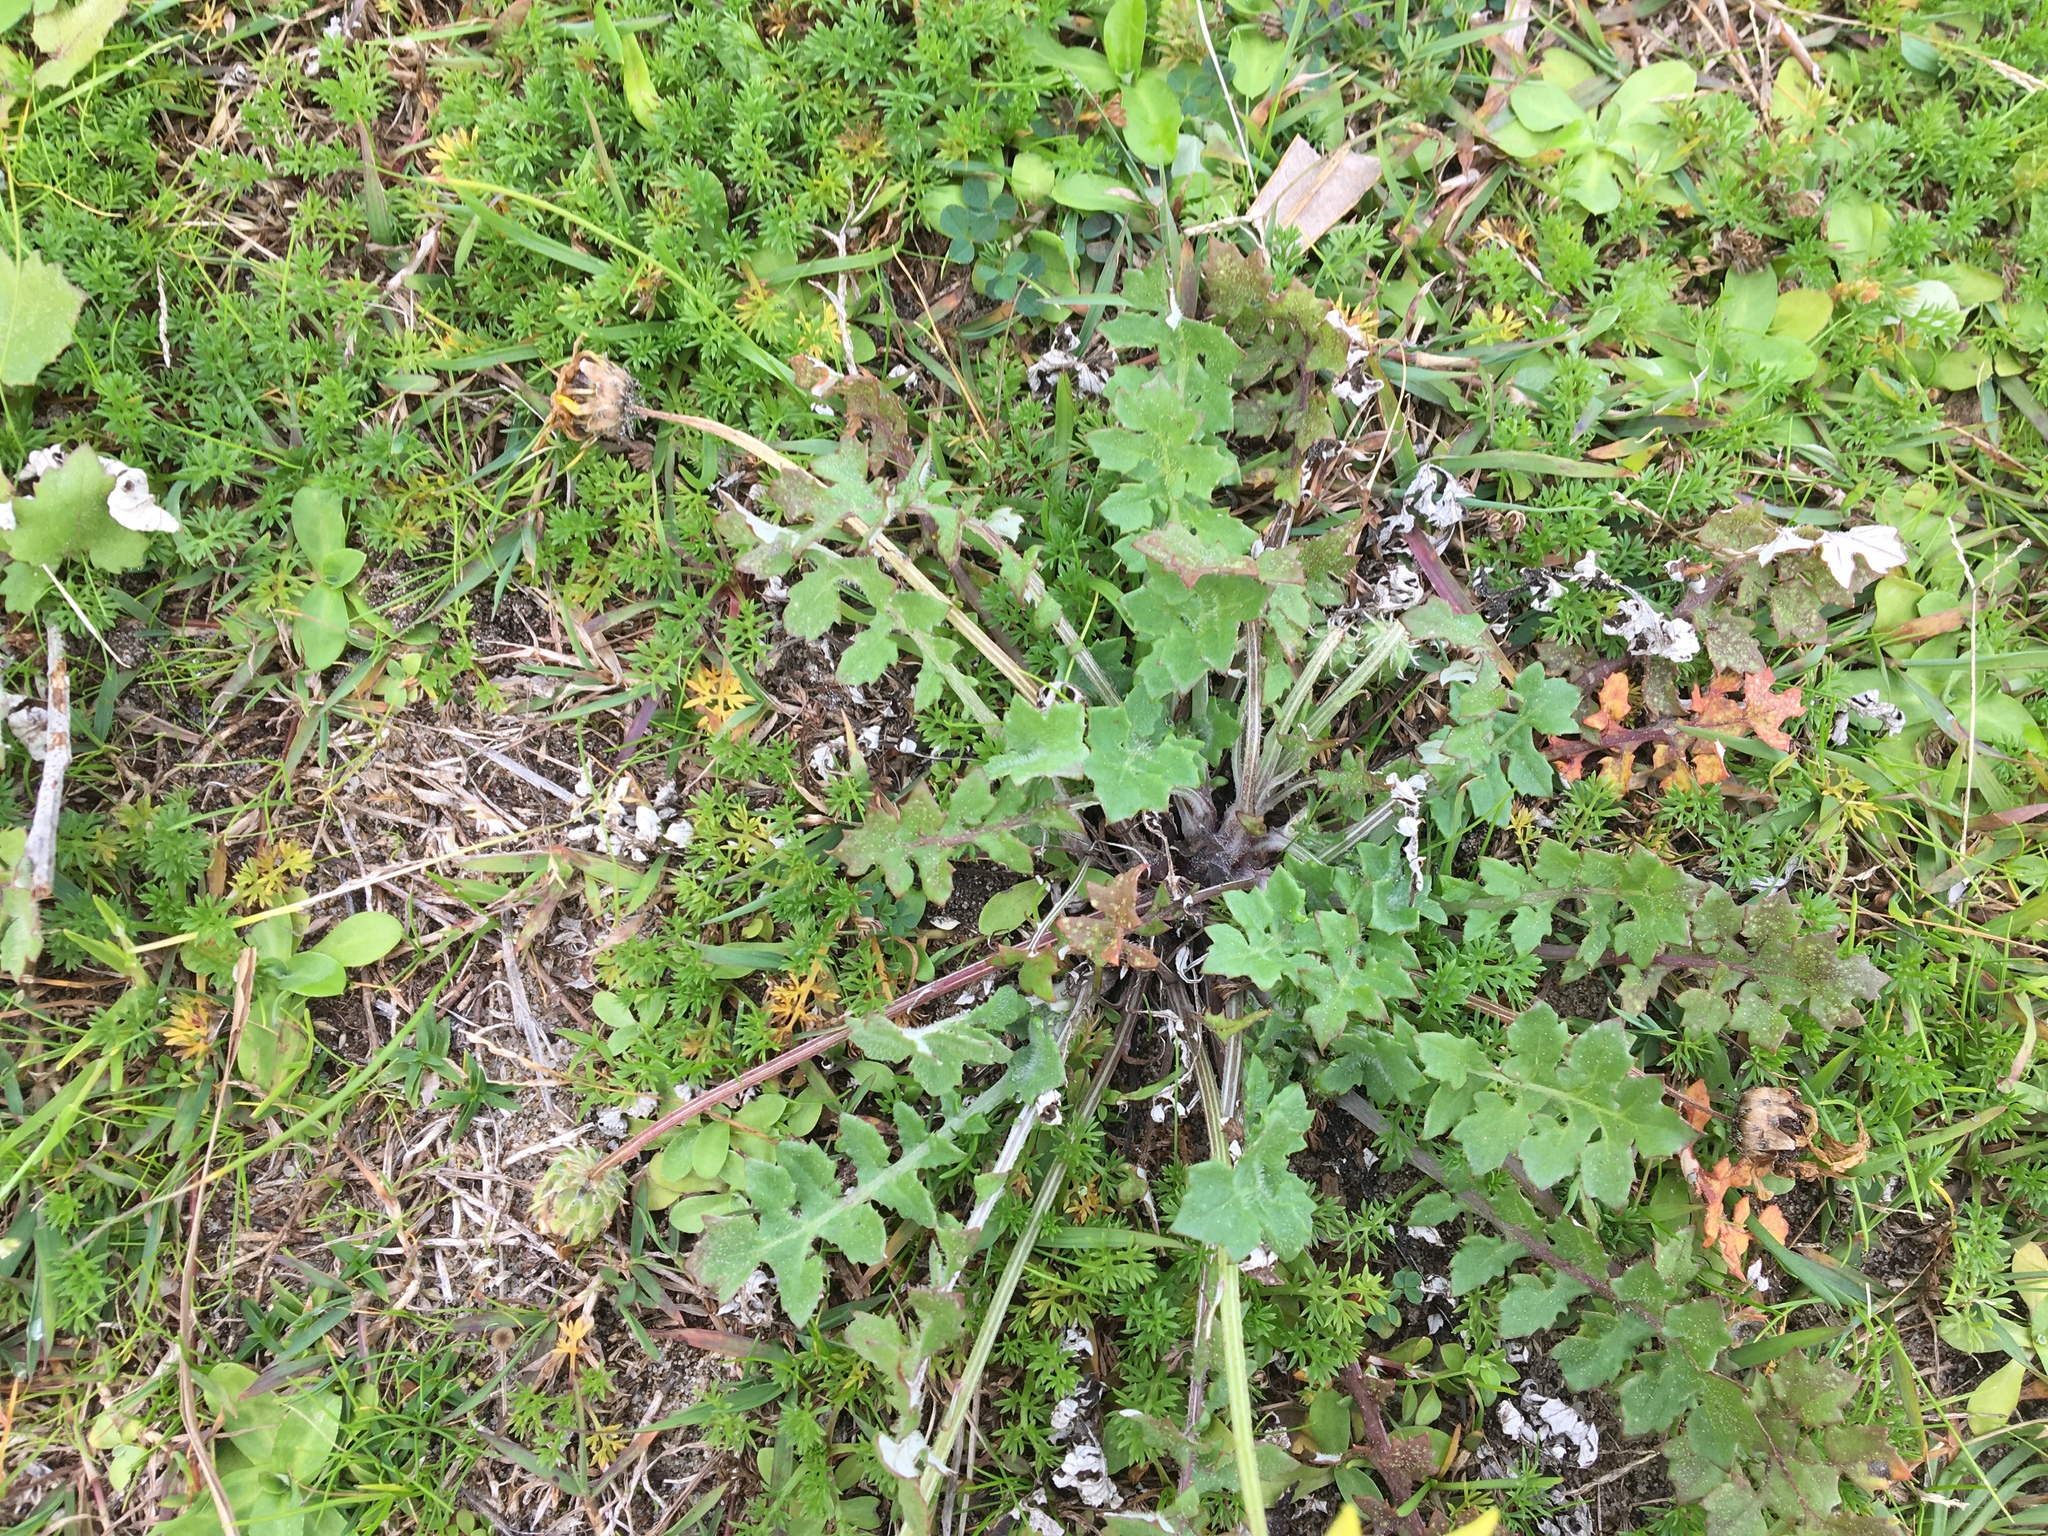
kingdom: Plantae
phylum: Tracheophyta
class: Magnoliopsida
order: Asterales
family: Asteraceae
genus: Arctotheca
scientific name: Arctotheca calendula
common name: Capeweed
